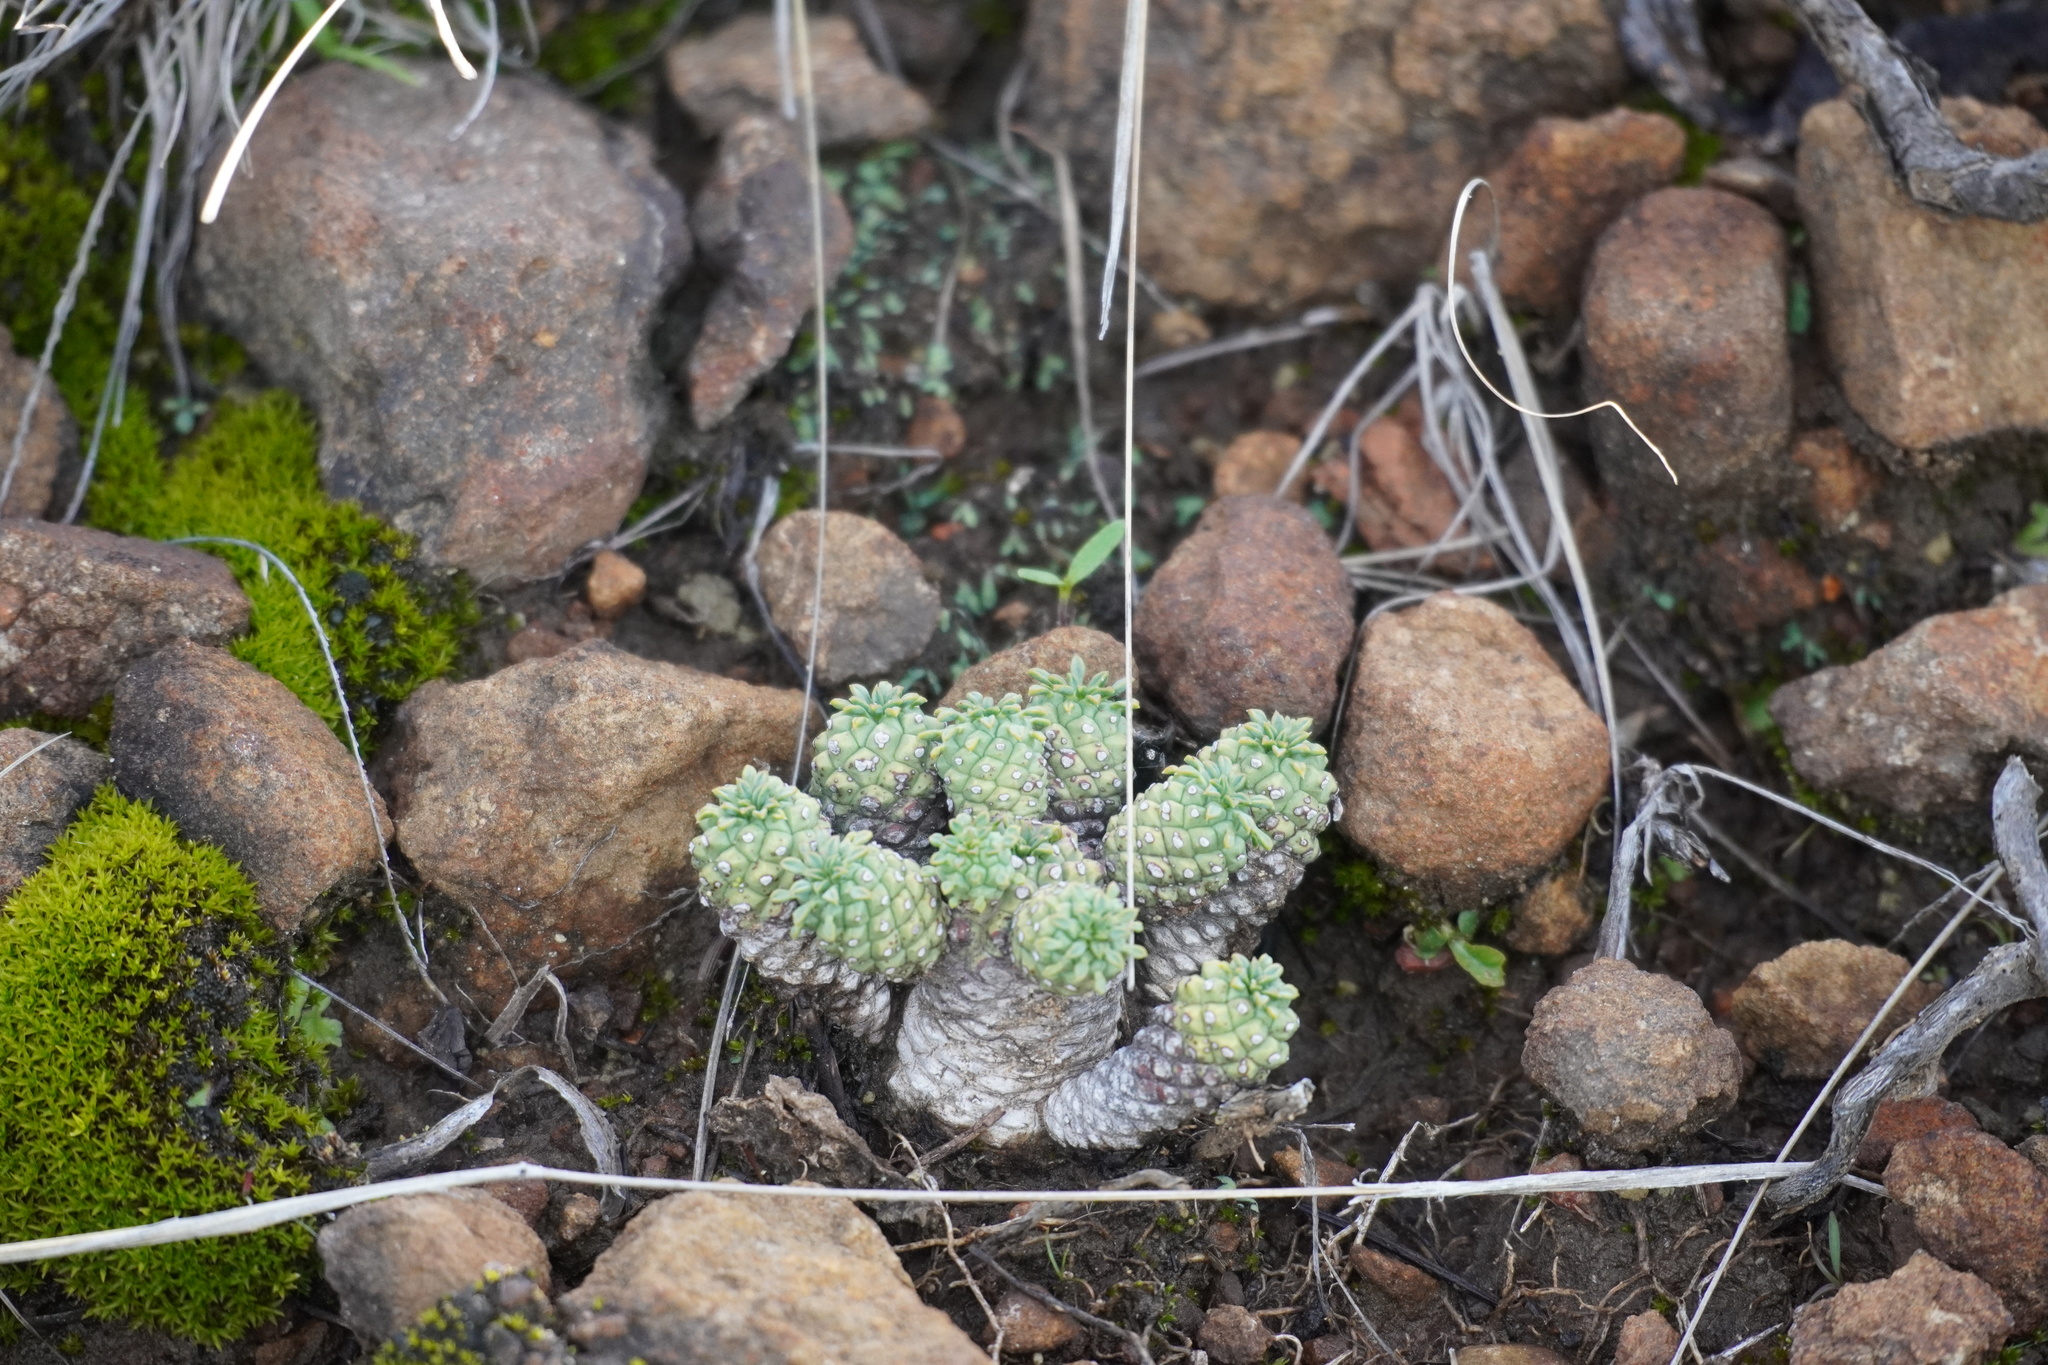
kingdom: Plantae
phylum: Tracheophyta
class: Magnoliopsida
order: Malpighiales
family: Euphorbiaceae
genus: Euphorbia
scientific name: Euphorbia clavarioides
